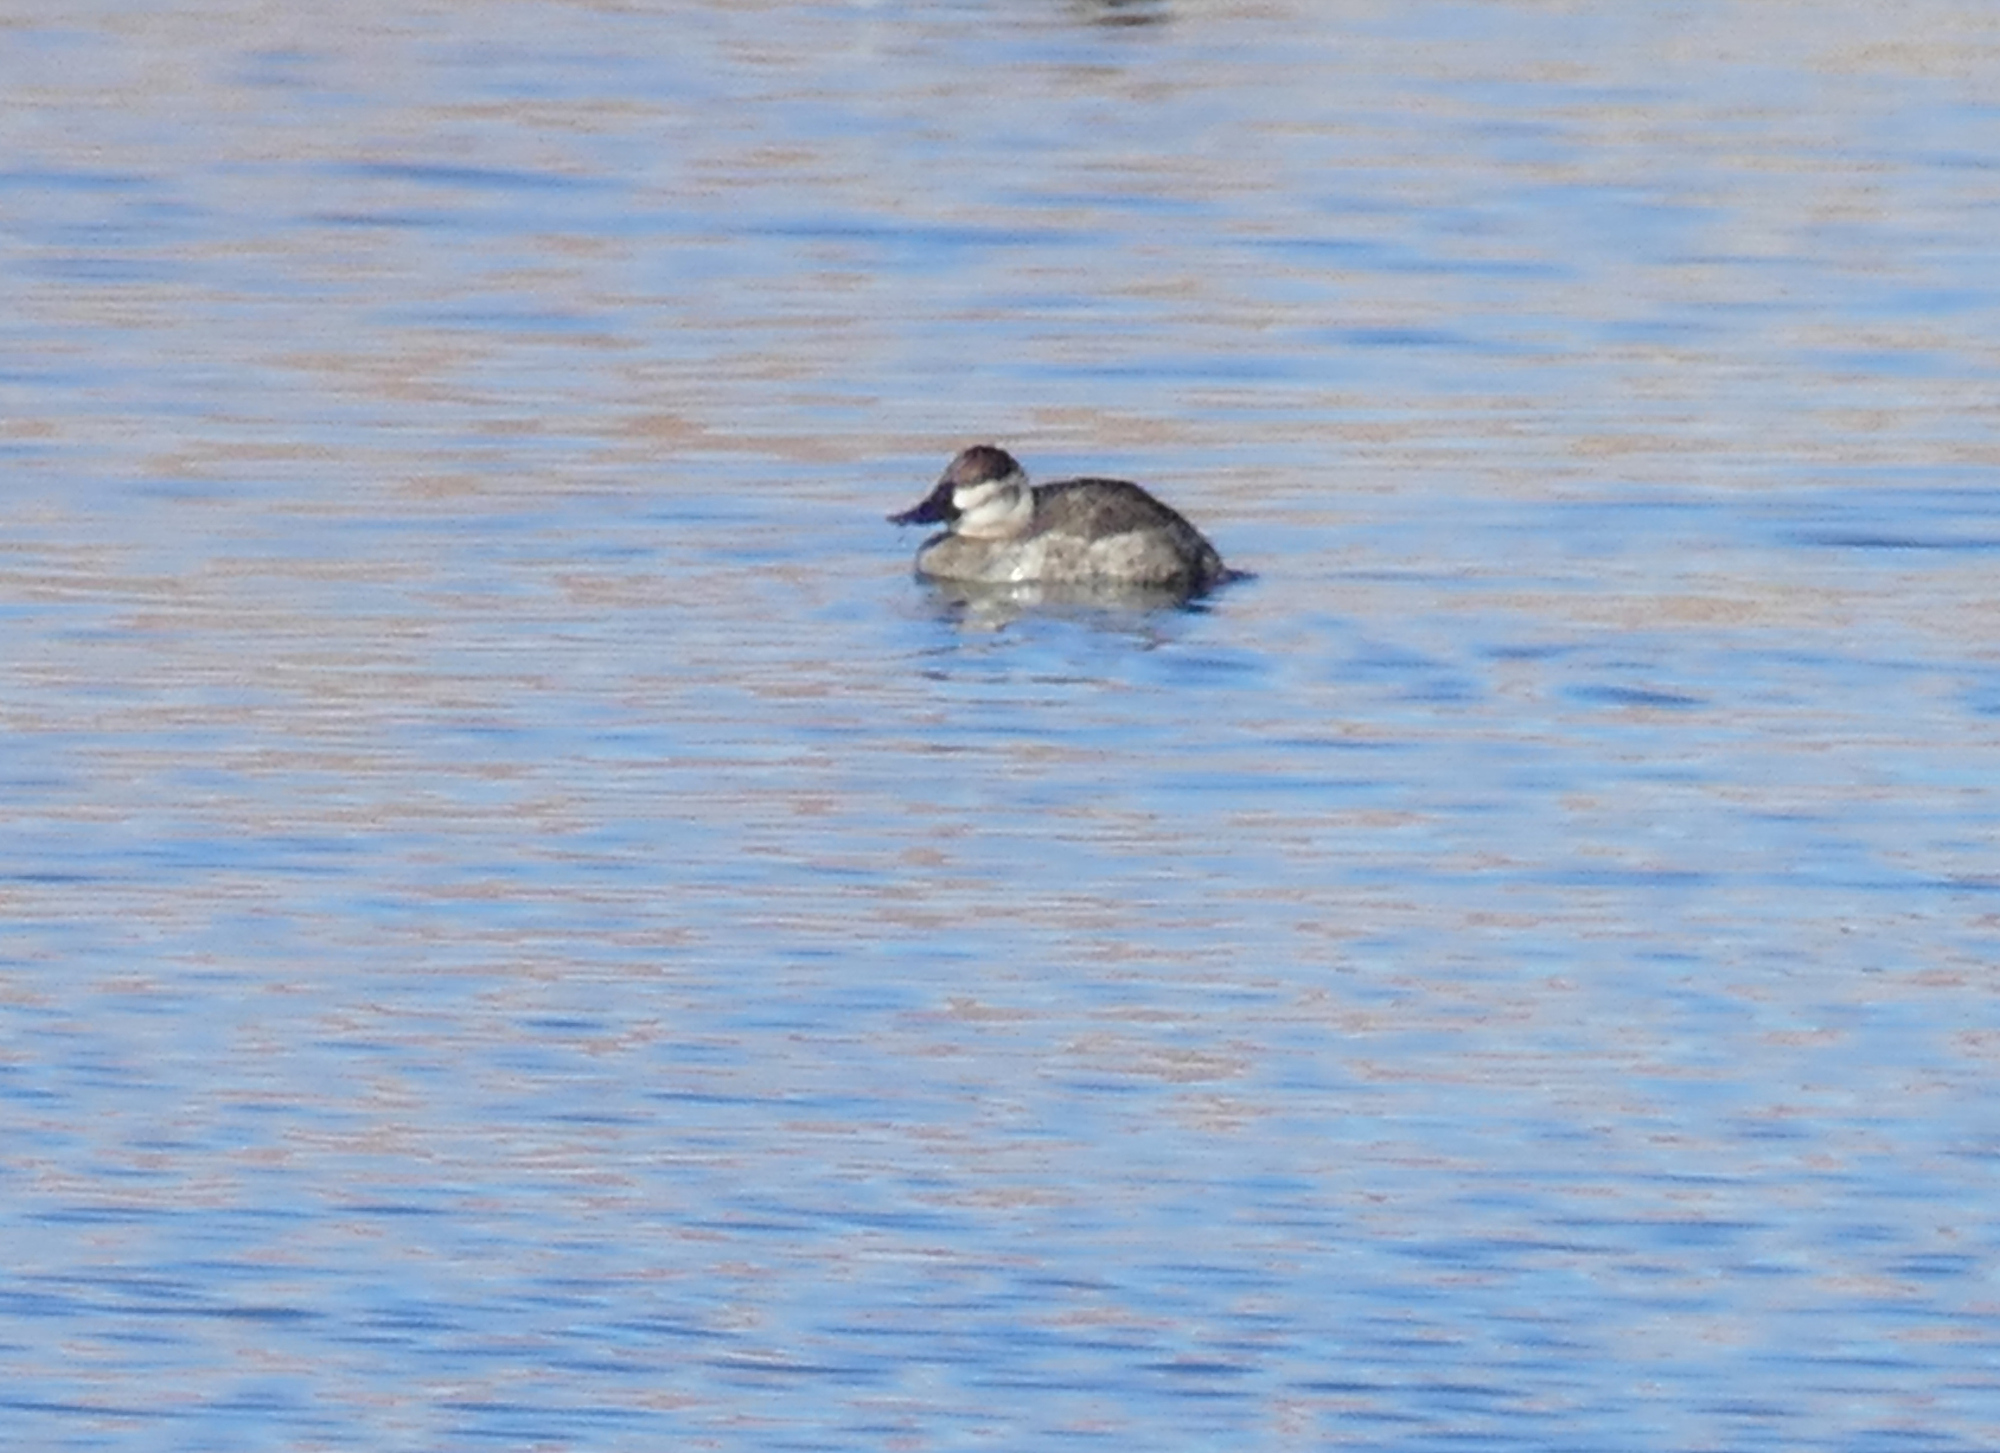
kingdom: Animalia
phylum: Chordata
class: Aves
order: Anseriformes
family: Anatidae
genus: Oxyura
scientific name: Oxyura jamaicensis
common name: Ruddy duck
